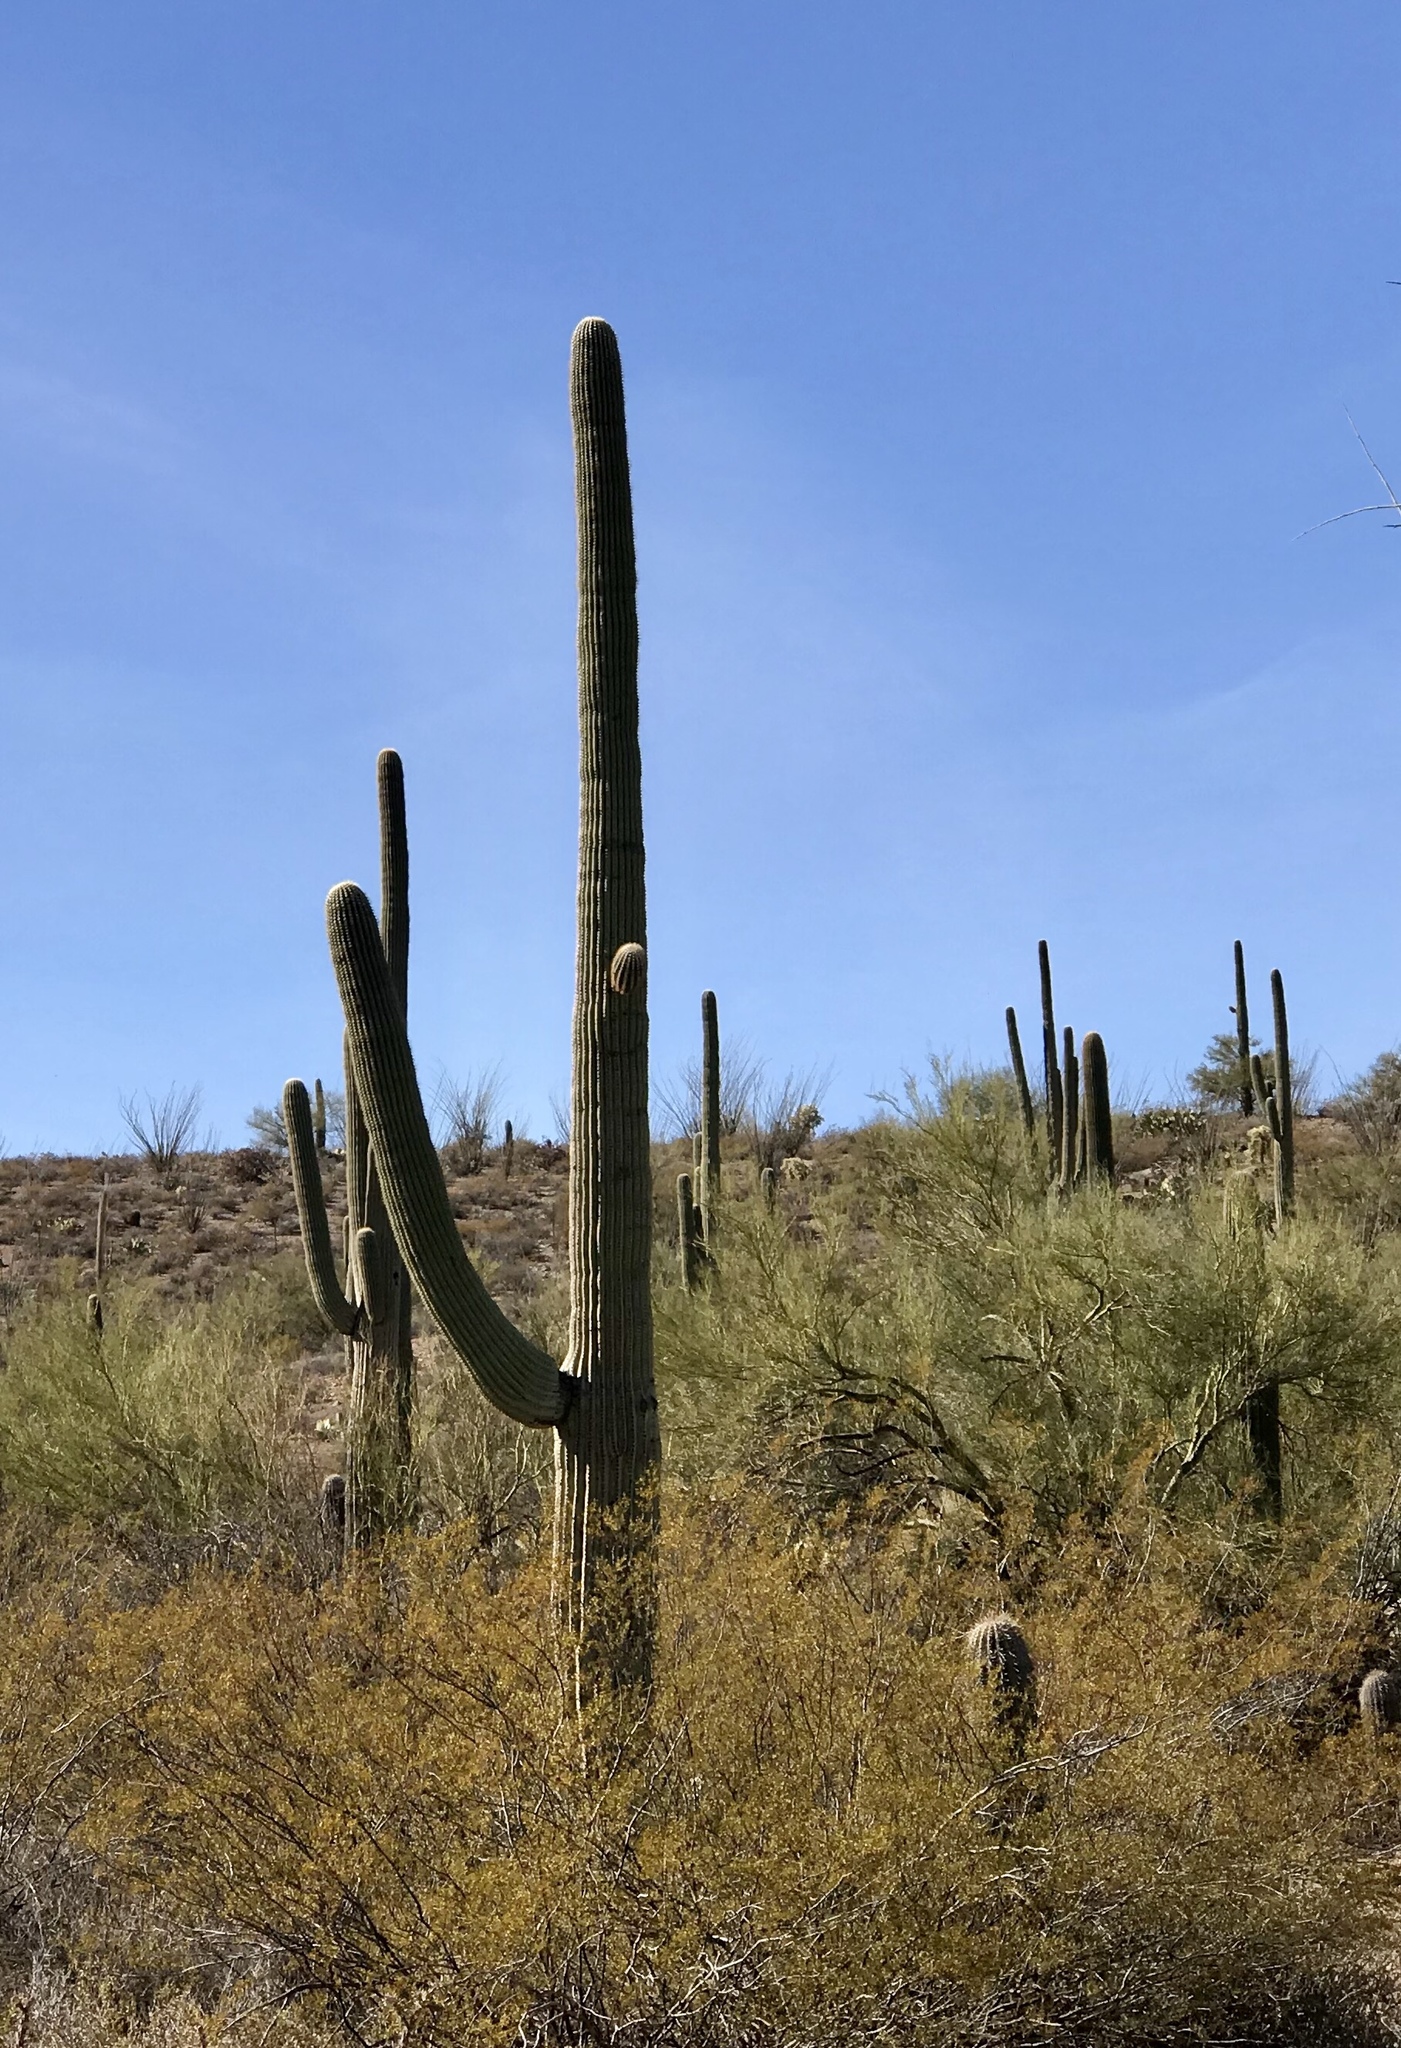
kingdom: Plantae
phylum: Tracheophyta
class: Magnoliopsida
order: Caryophyllales
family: Cactaceae
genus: Carnegiea
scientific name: Carnegiea gigantea
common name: Saguaro
